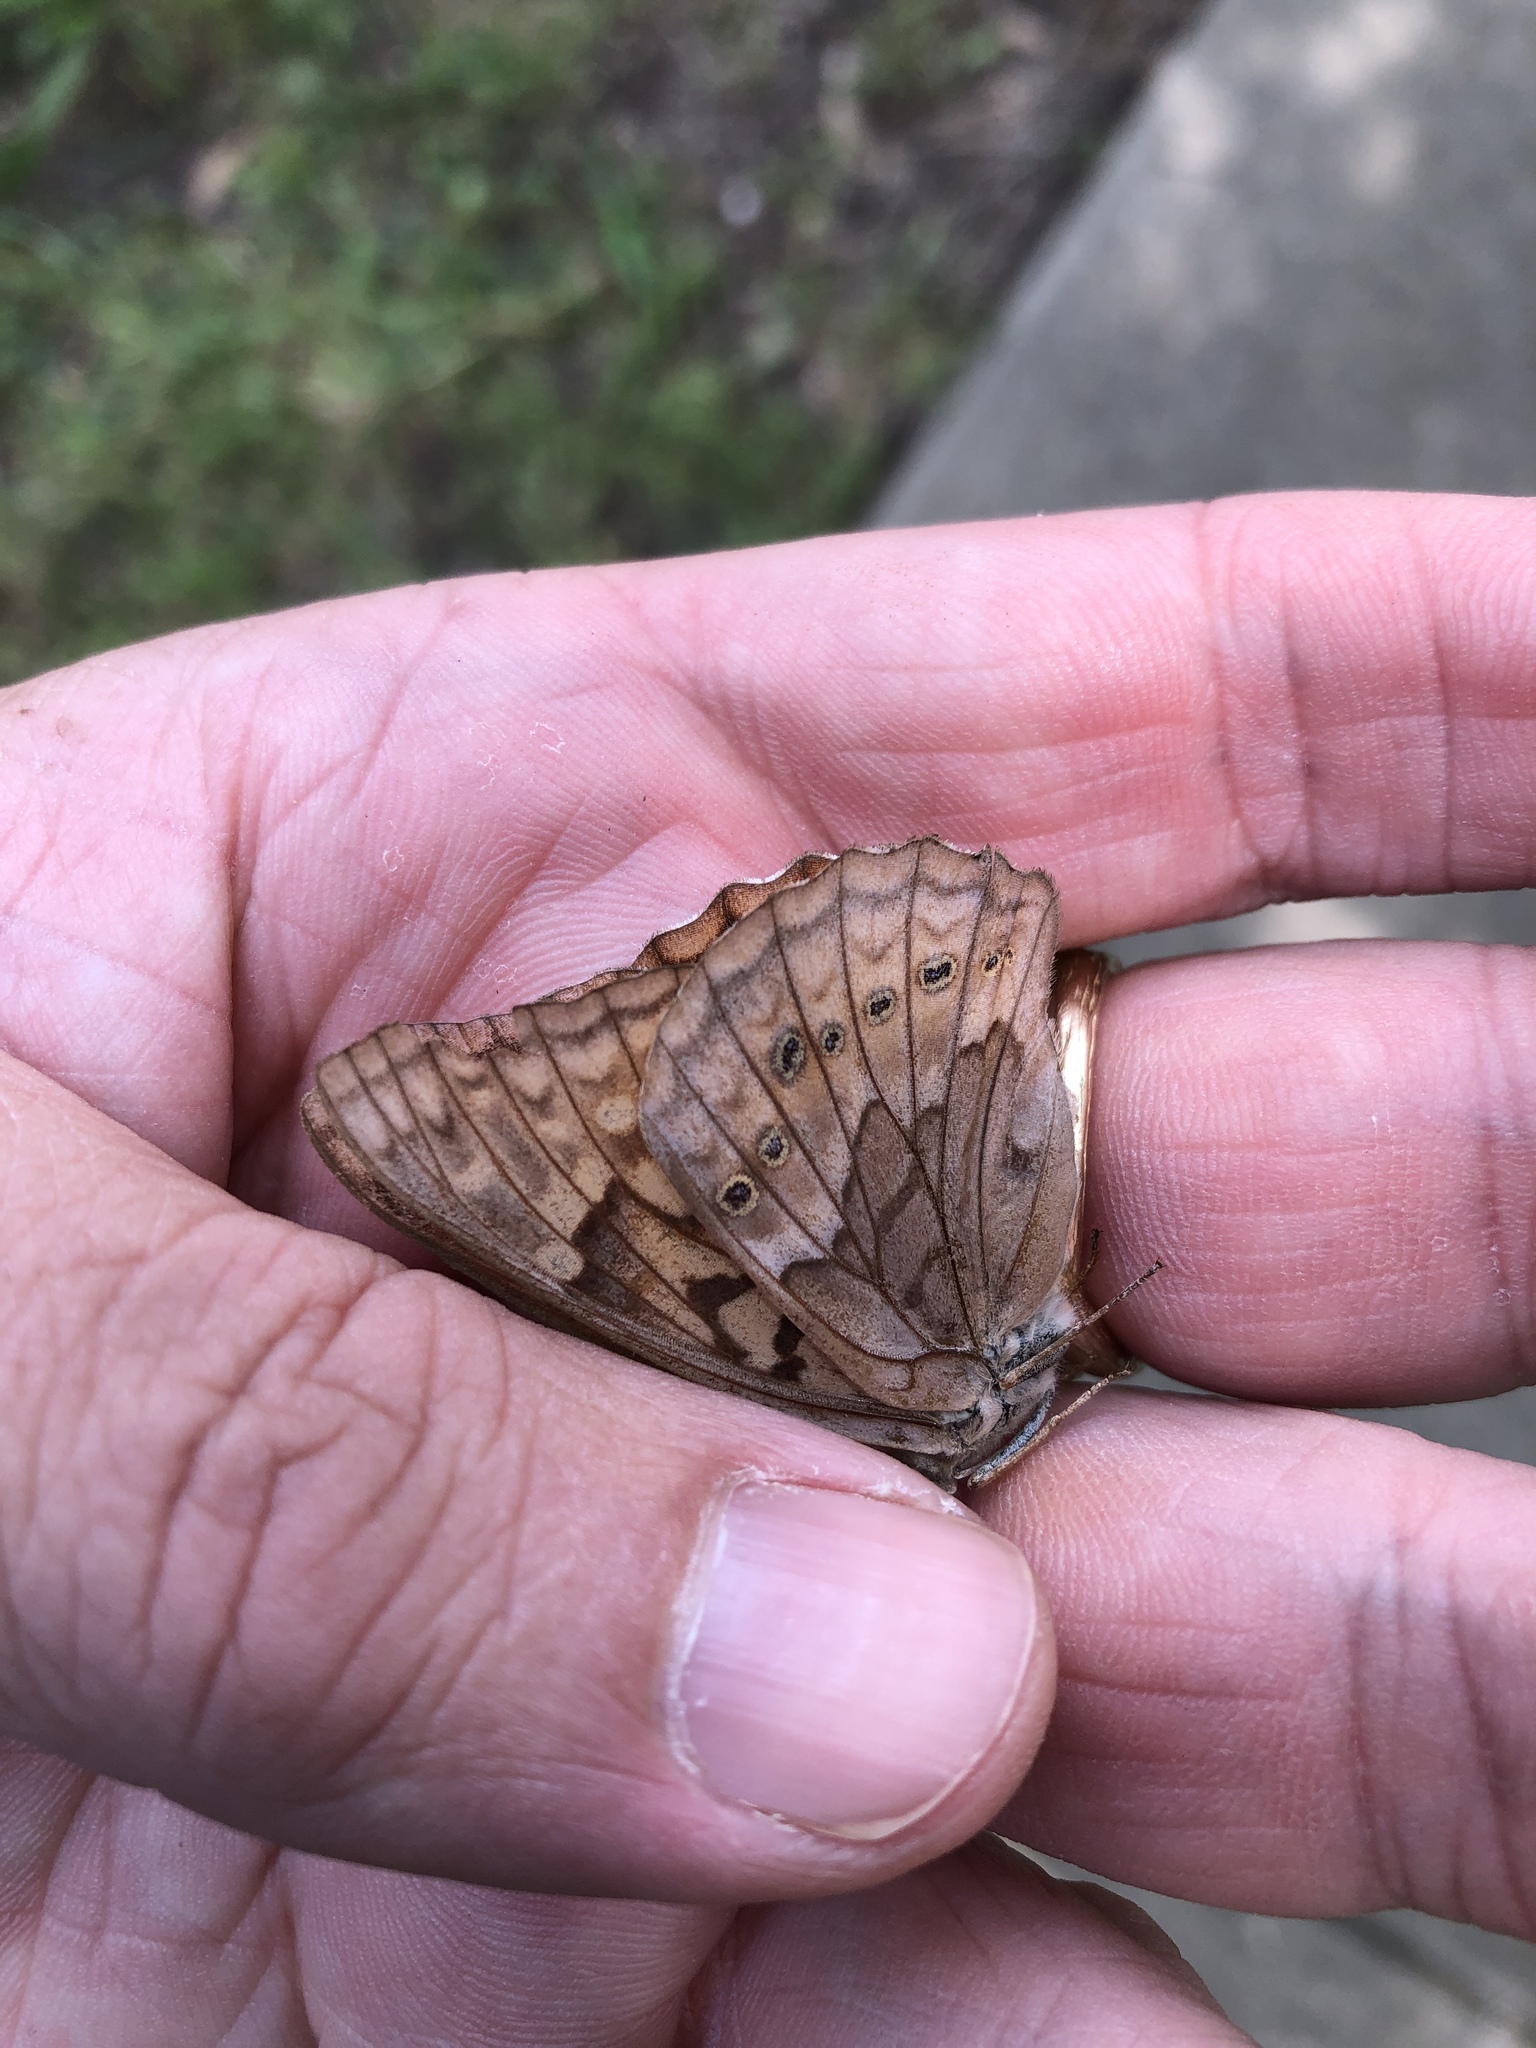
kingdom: Animalia
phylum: Arthropoda
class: Insecta
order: Lepidoptera
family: Nymphalidae
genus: Asterocampa
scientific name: Asterocampa clyton
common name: Tawny emperor
